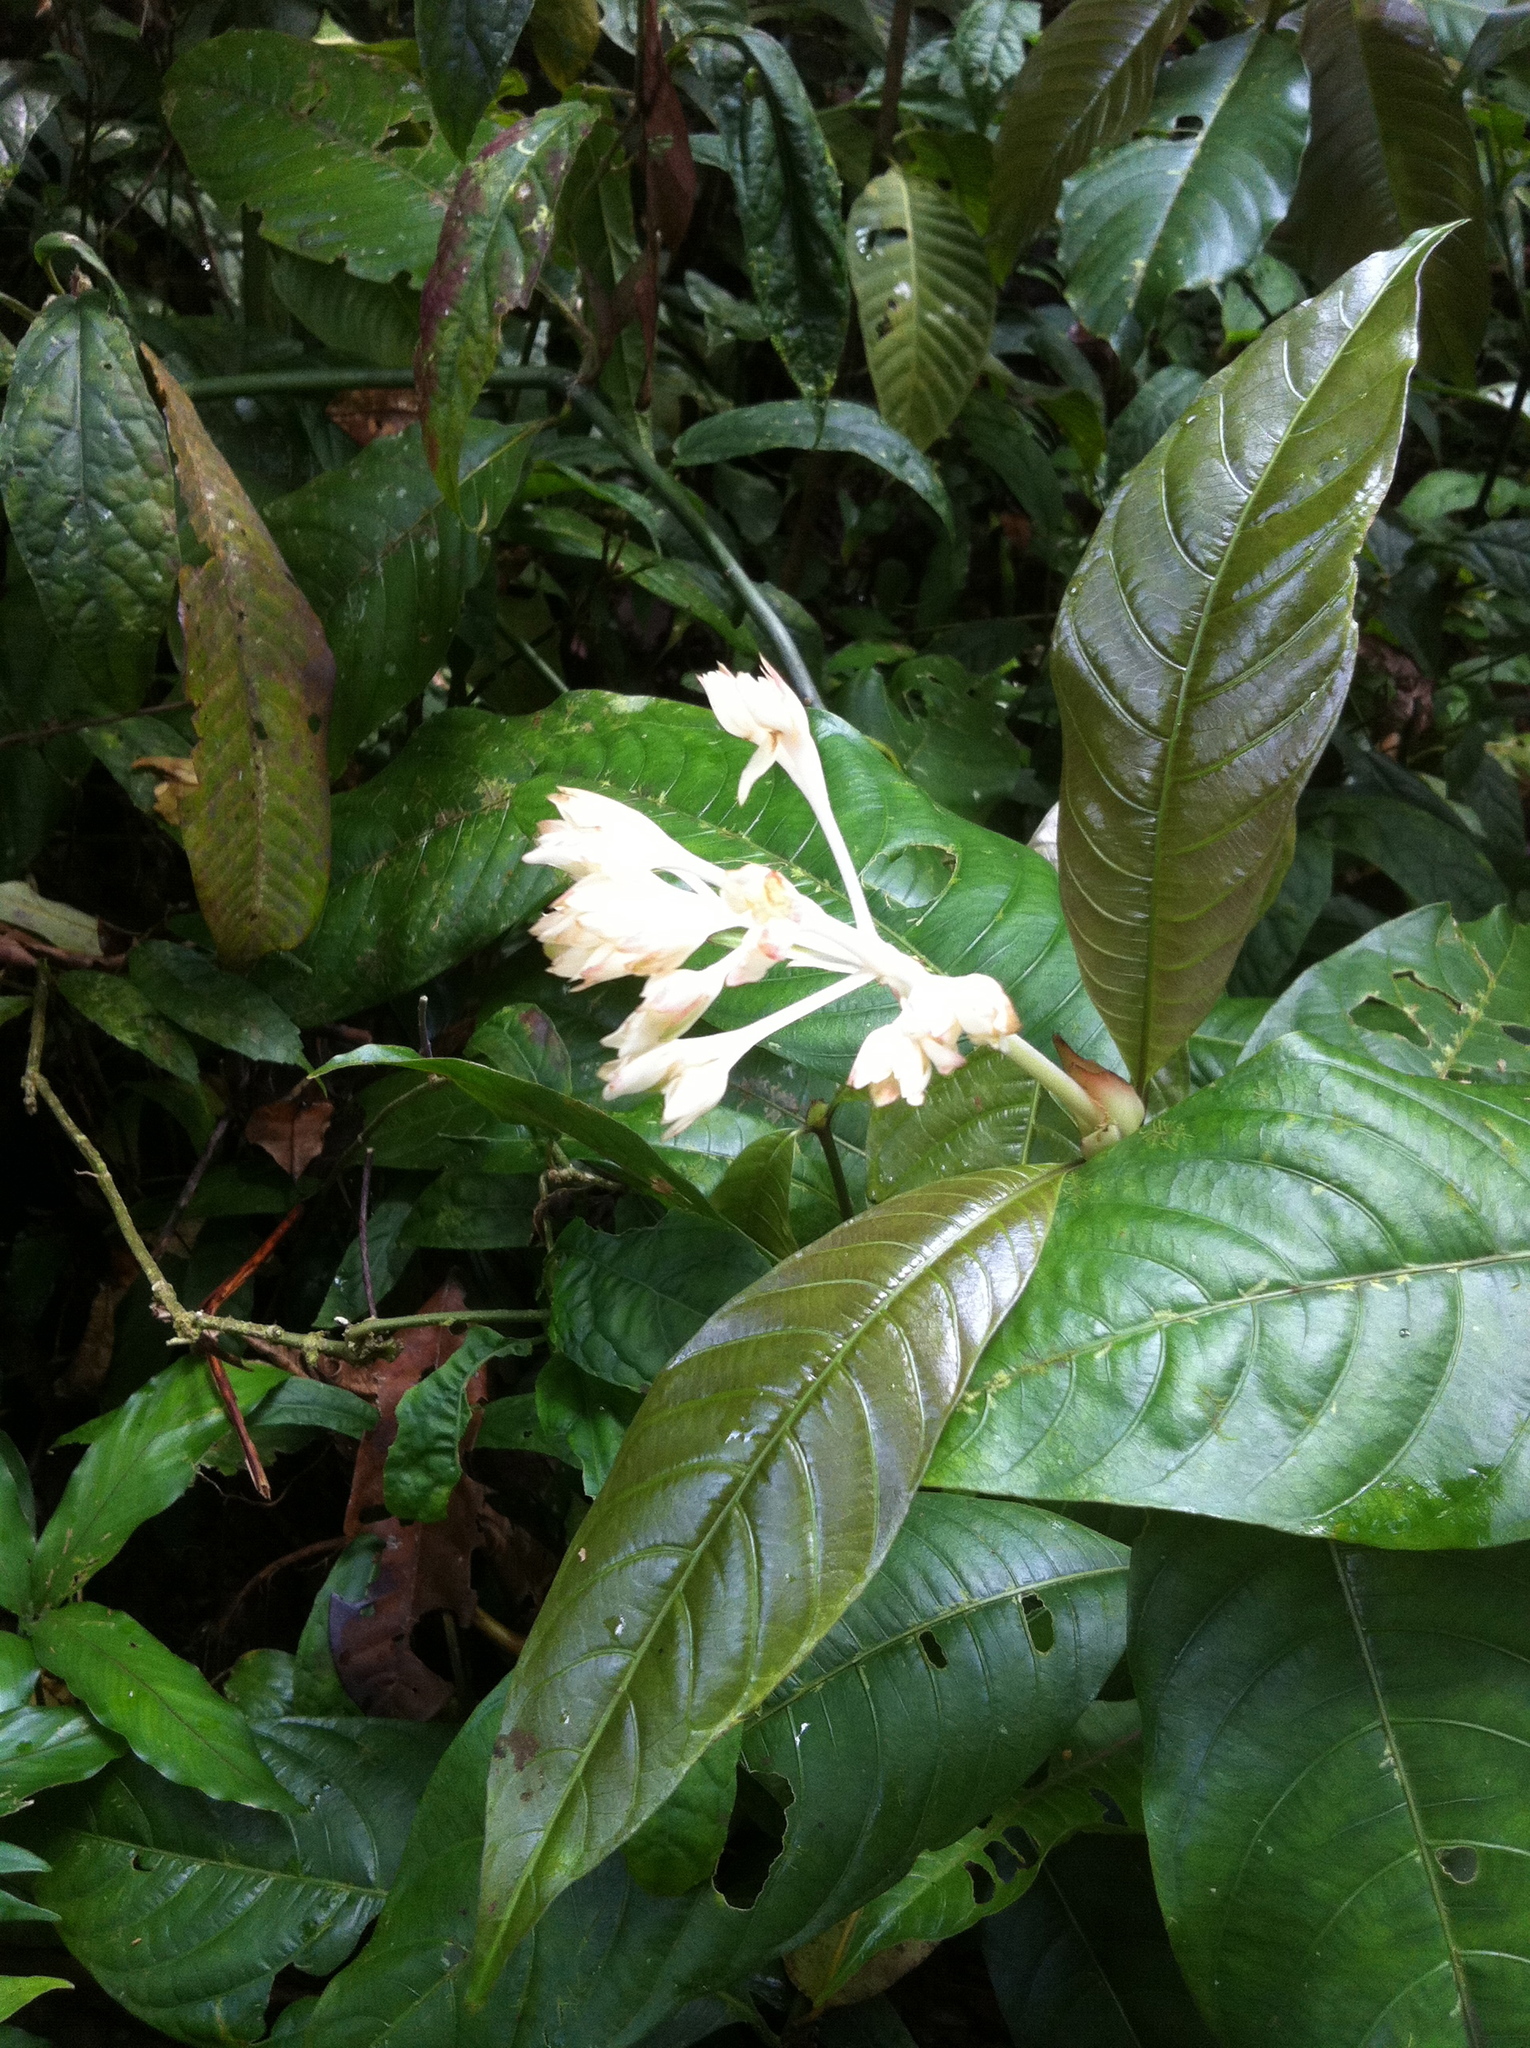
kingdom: Plantae
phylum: Tracheophyta
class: Magnoliopsida
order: Gentianales
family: Rubiaceae
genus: Palicourea
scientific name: Palicourea violacea
